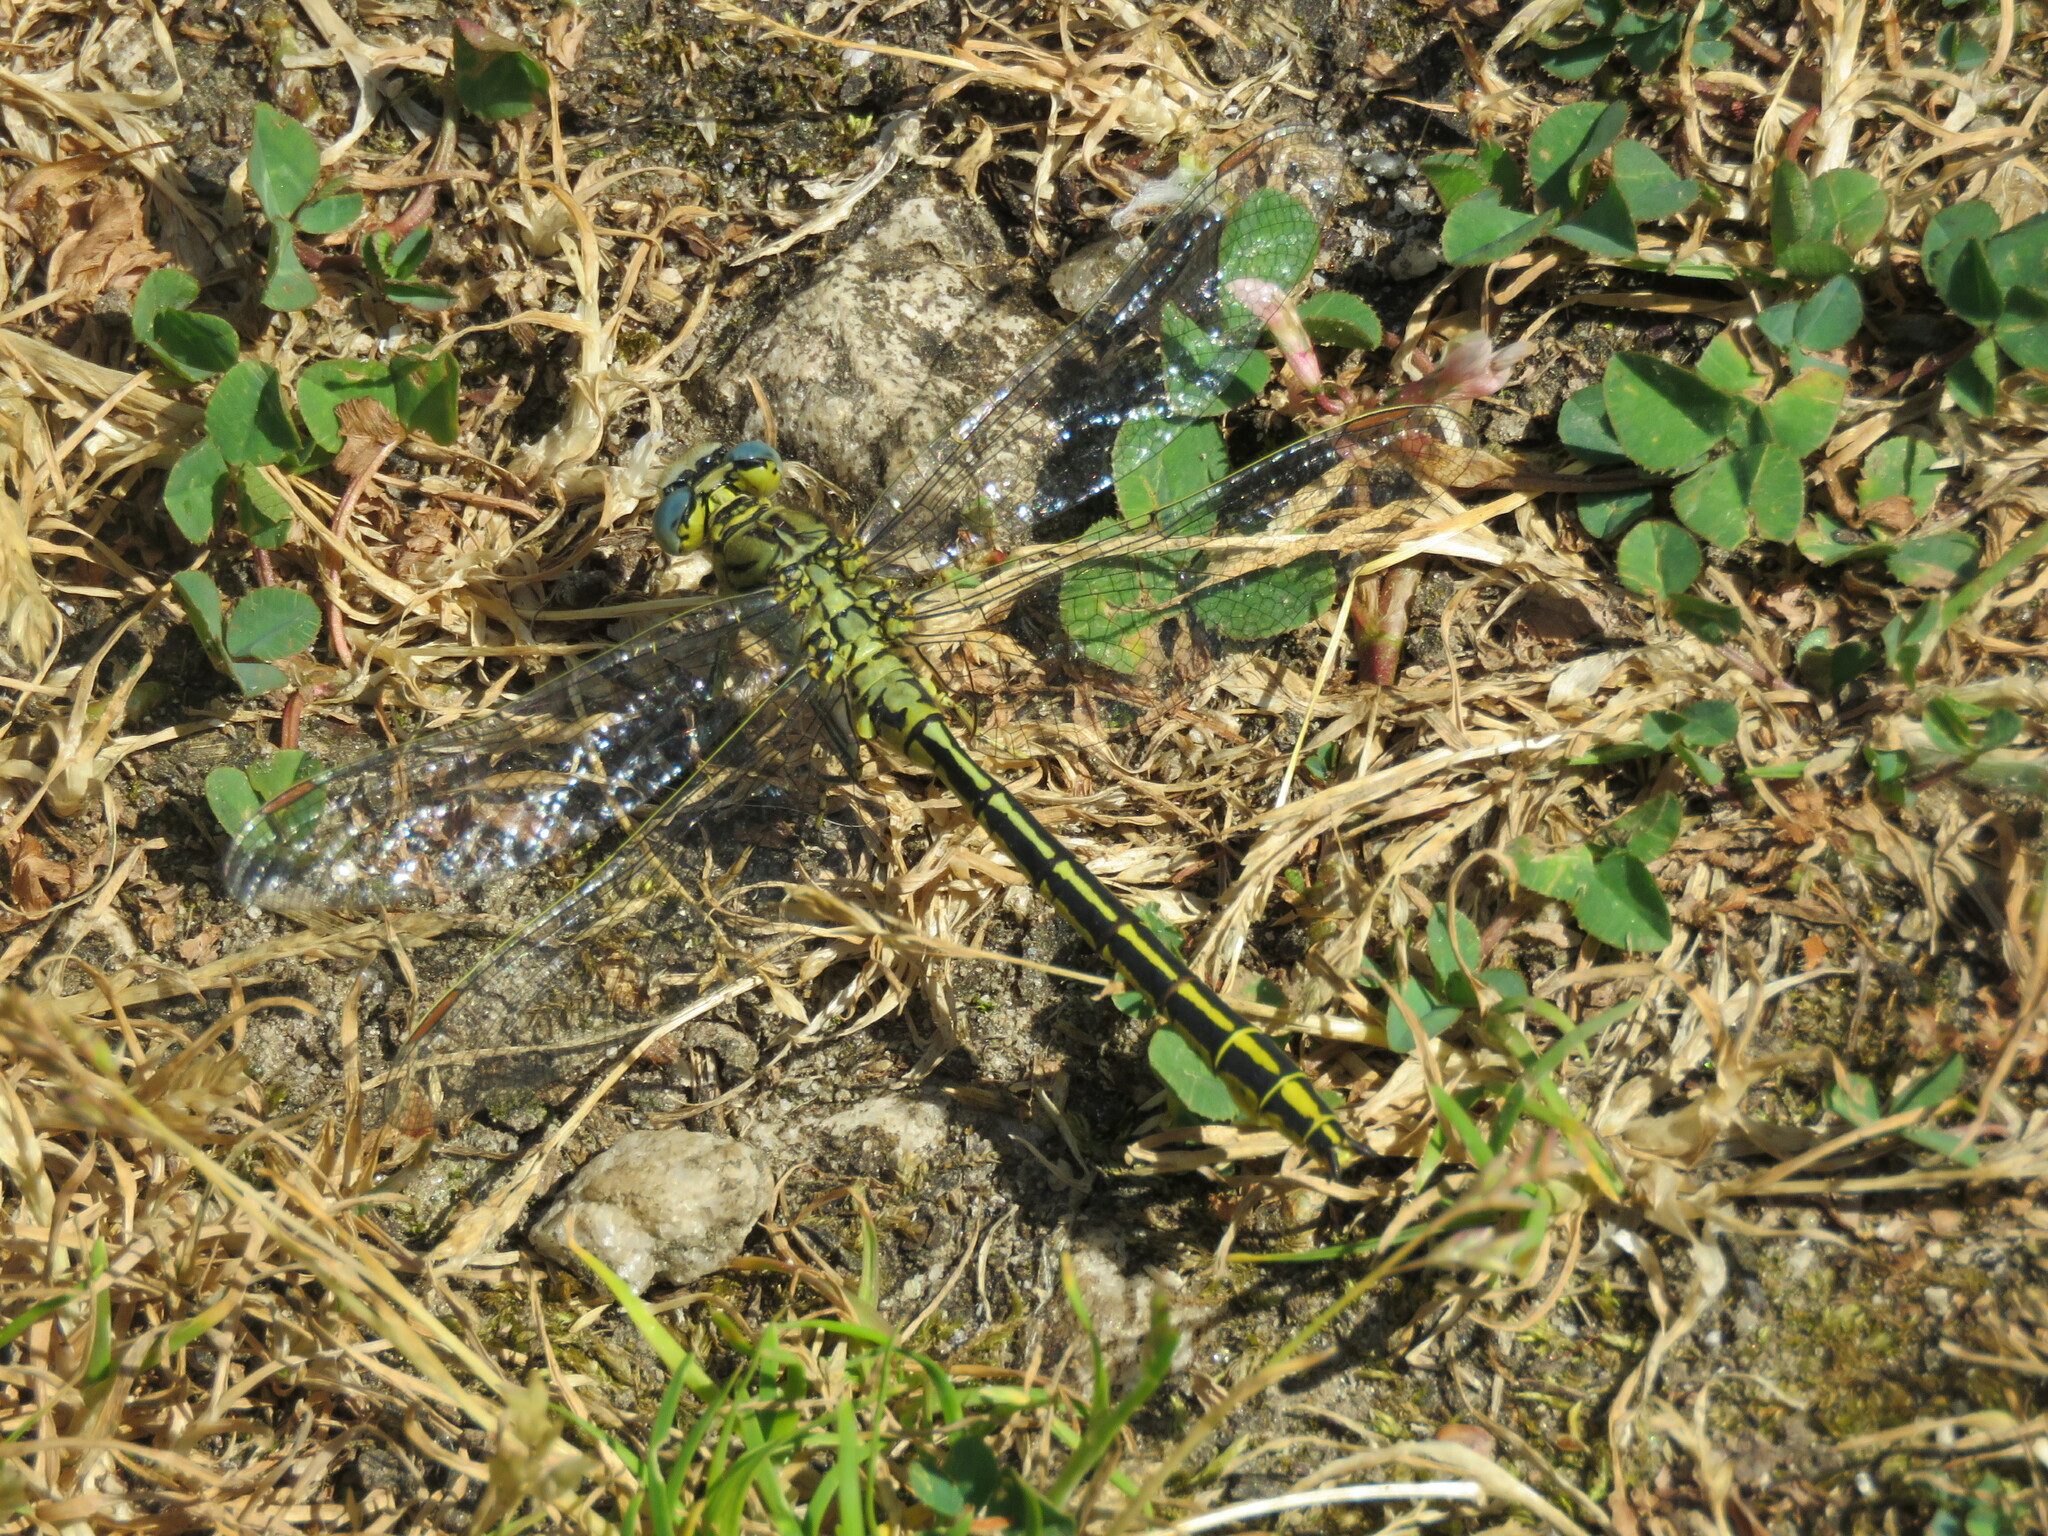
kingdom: Animalia
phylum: Arthropoda
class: Insecta
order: Odonata
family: Gomphidae
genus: Gomphus
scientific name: Gomphus pulchellus
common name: Western clubtail
